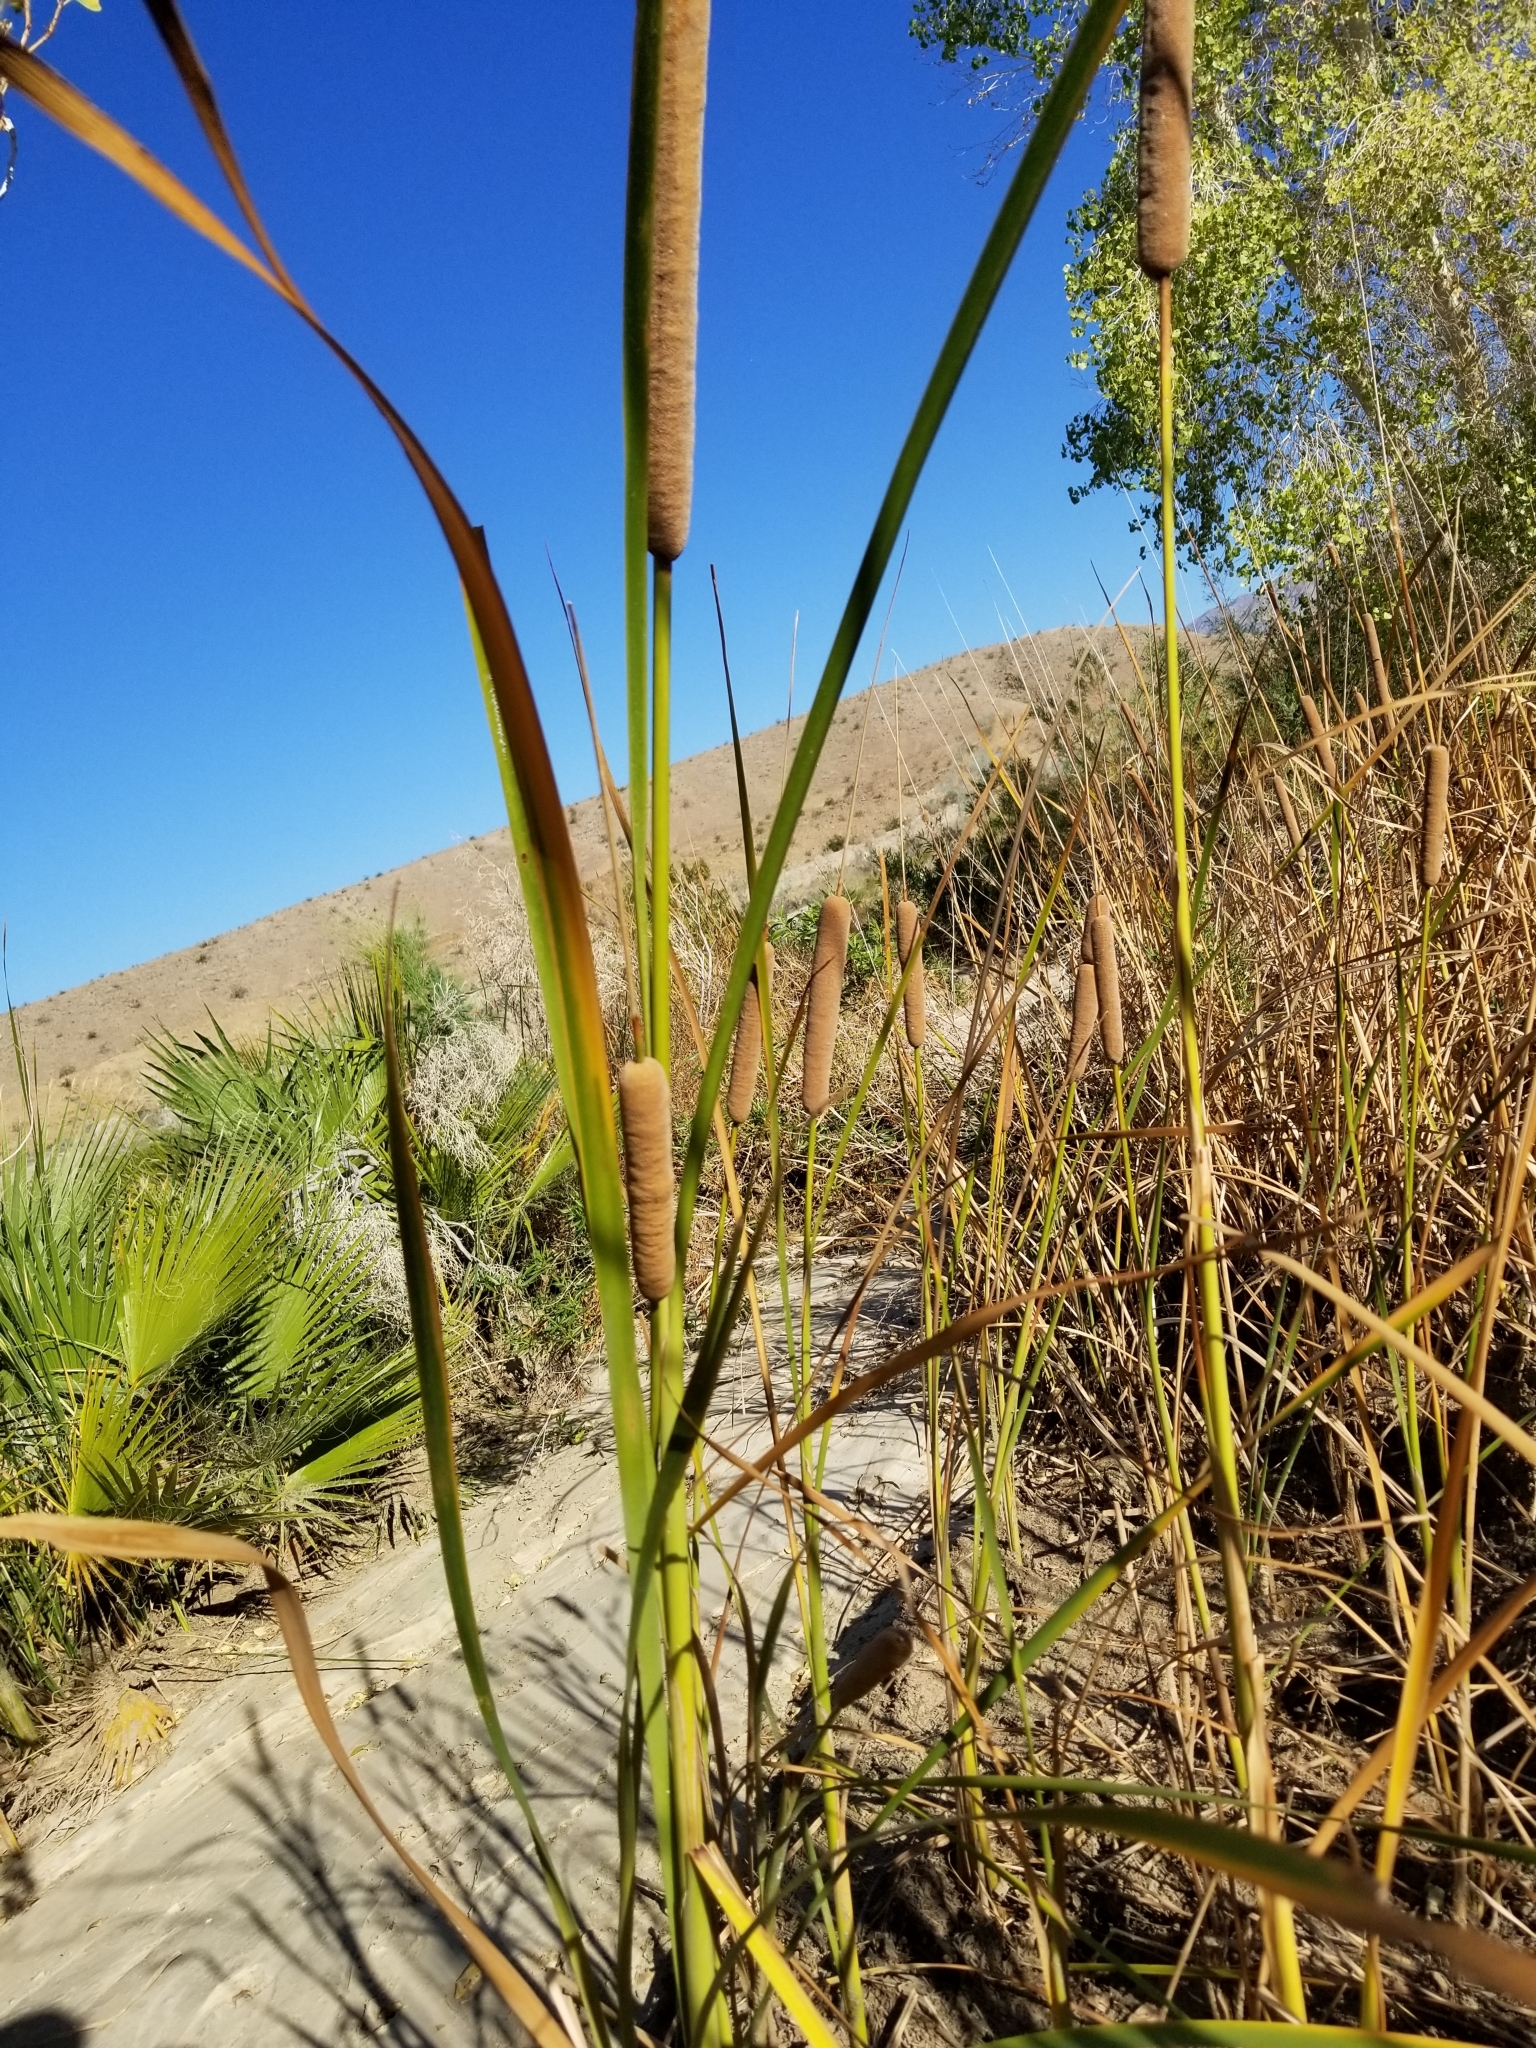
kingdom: Plantae
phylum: Tracheophyta
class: Liliopsida
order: Poales
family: Typhaceae
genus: Typha
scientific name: Typha domingensis
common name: Southern cattail
